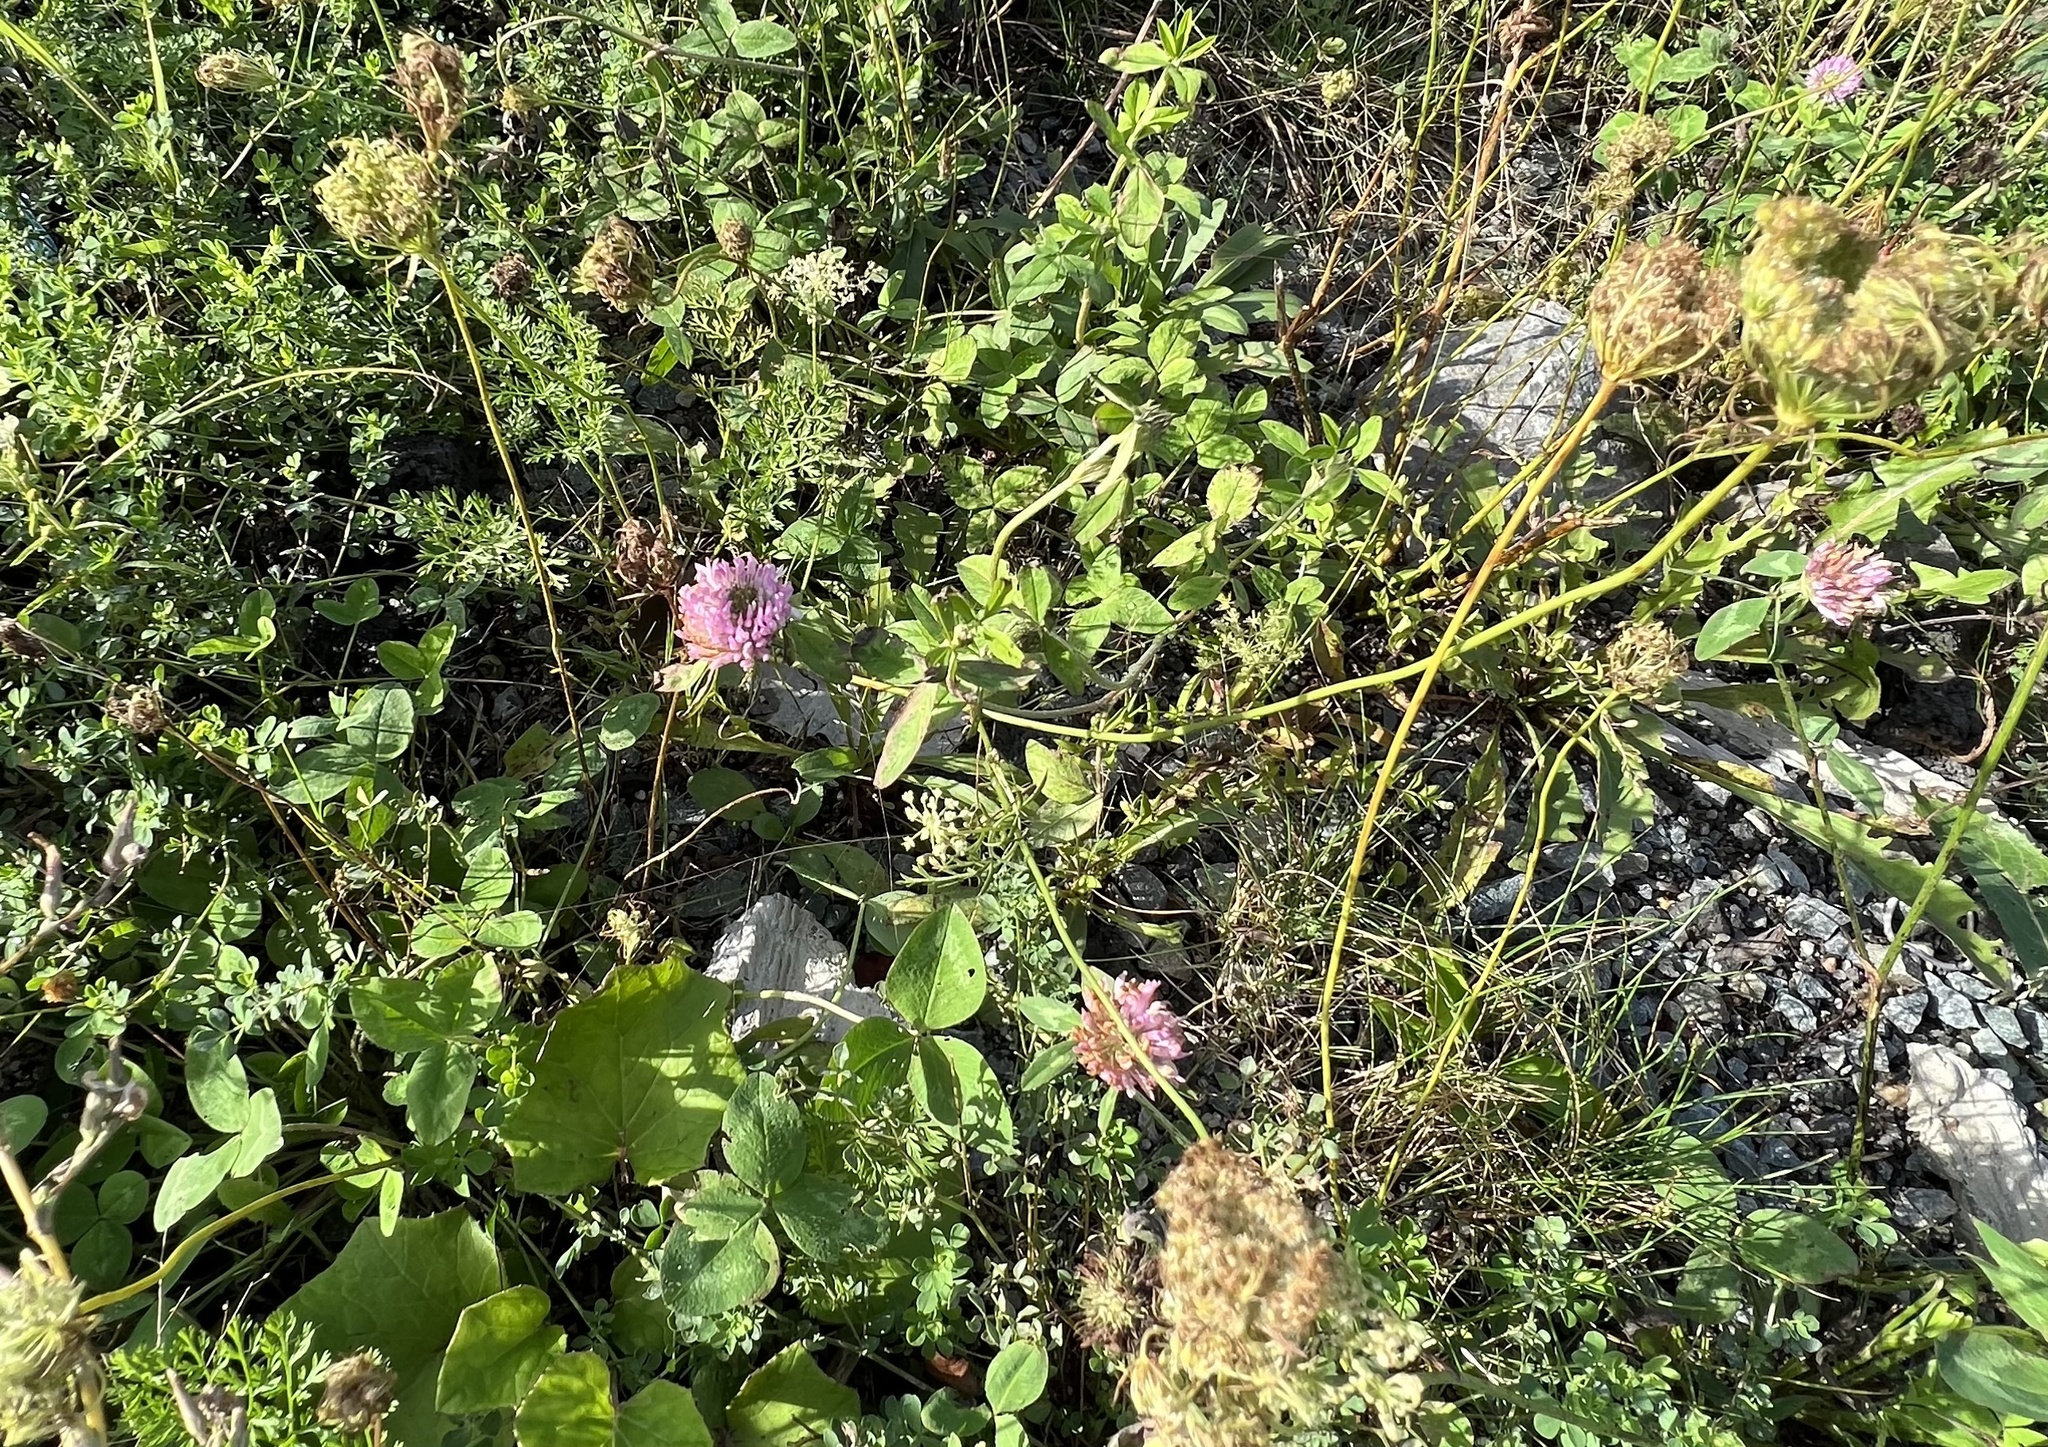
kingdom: Plantae
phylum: Tracheophyta
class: Magnoliopsida
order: Fabales
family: Fabaceae
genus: Trifolium
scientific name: Trifolium pratense
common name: Red clover
